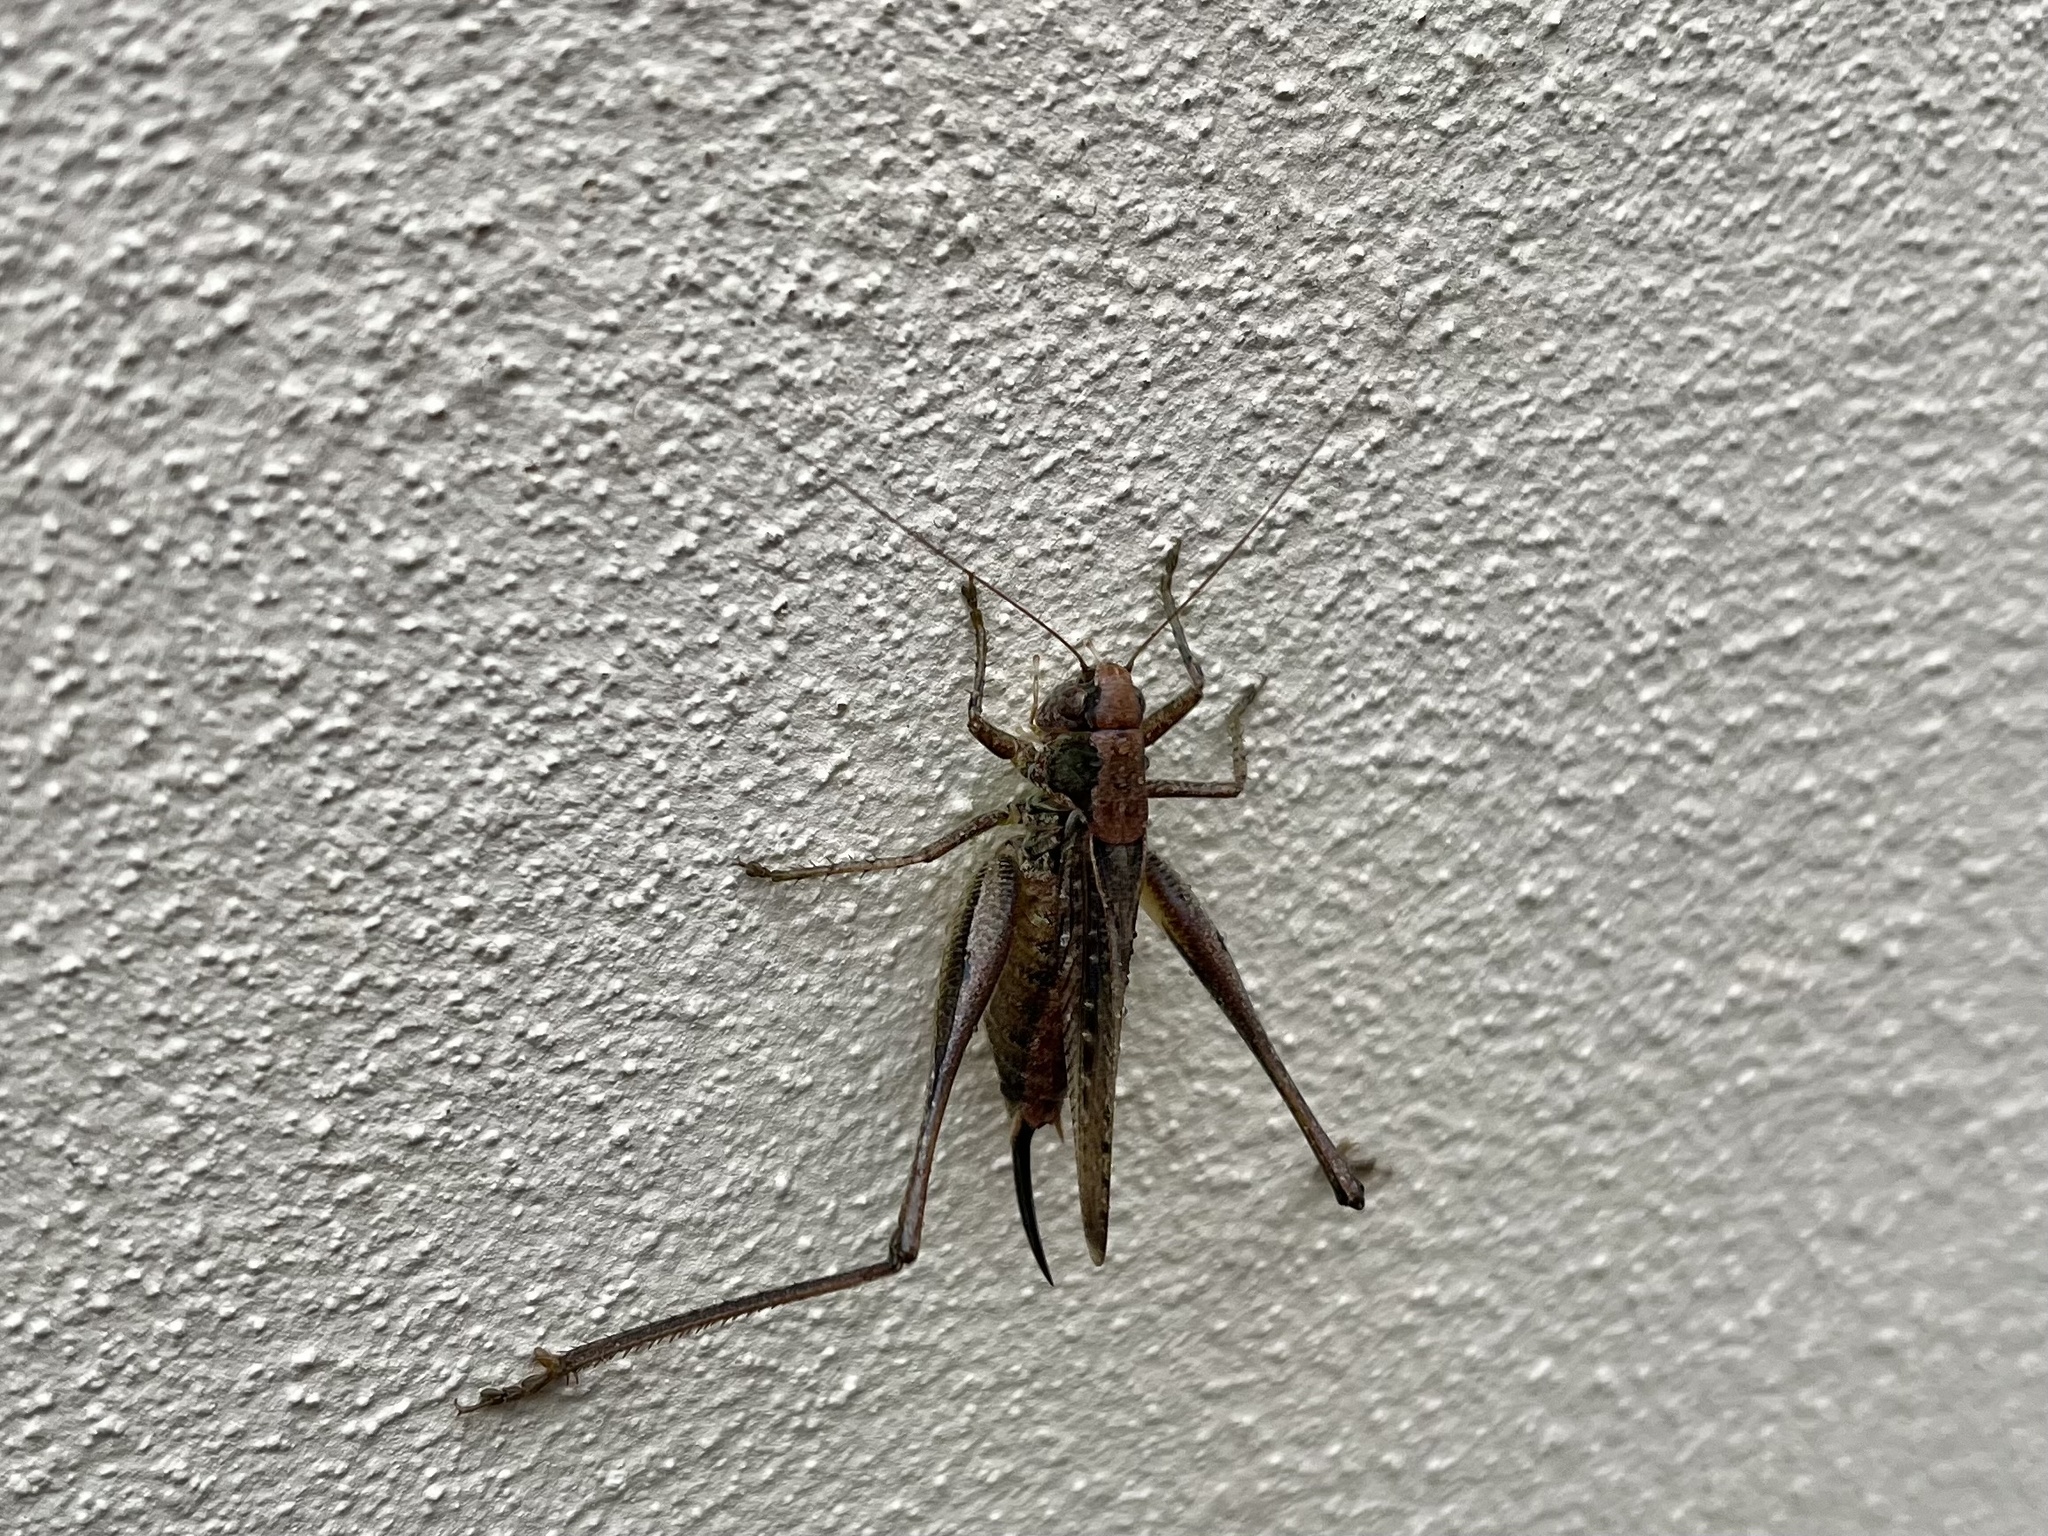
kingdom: Animalia
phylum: Arthropoda
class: Insecta
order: Orthoptera
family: Tettigoniidae
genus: Platycleis
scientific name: Platycleis albopunctata
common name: Grey bush-cricket
